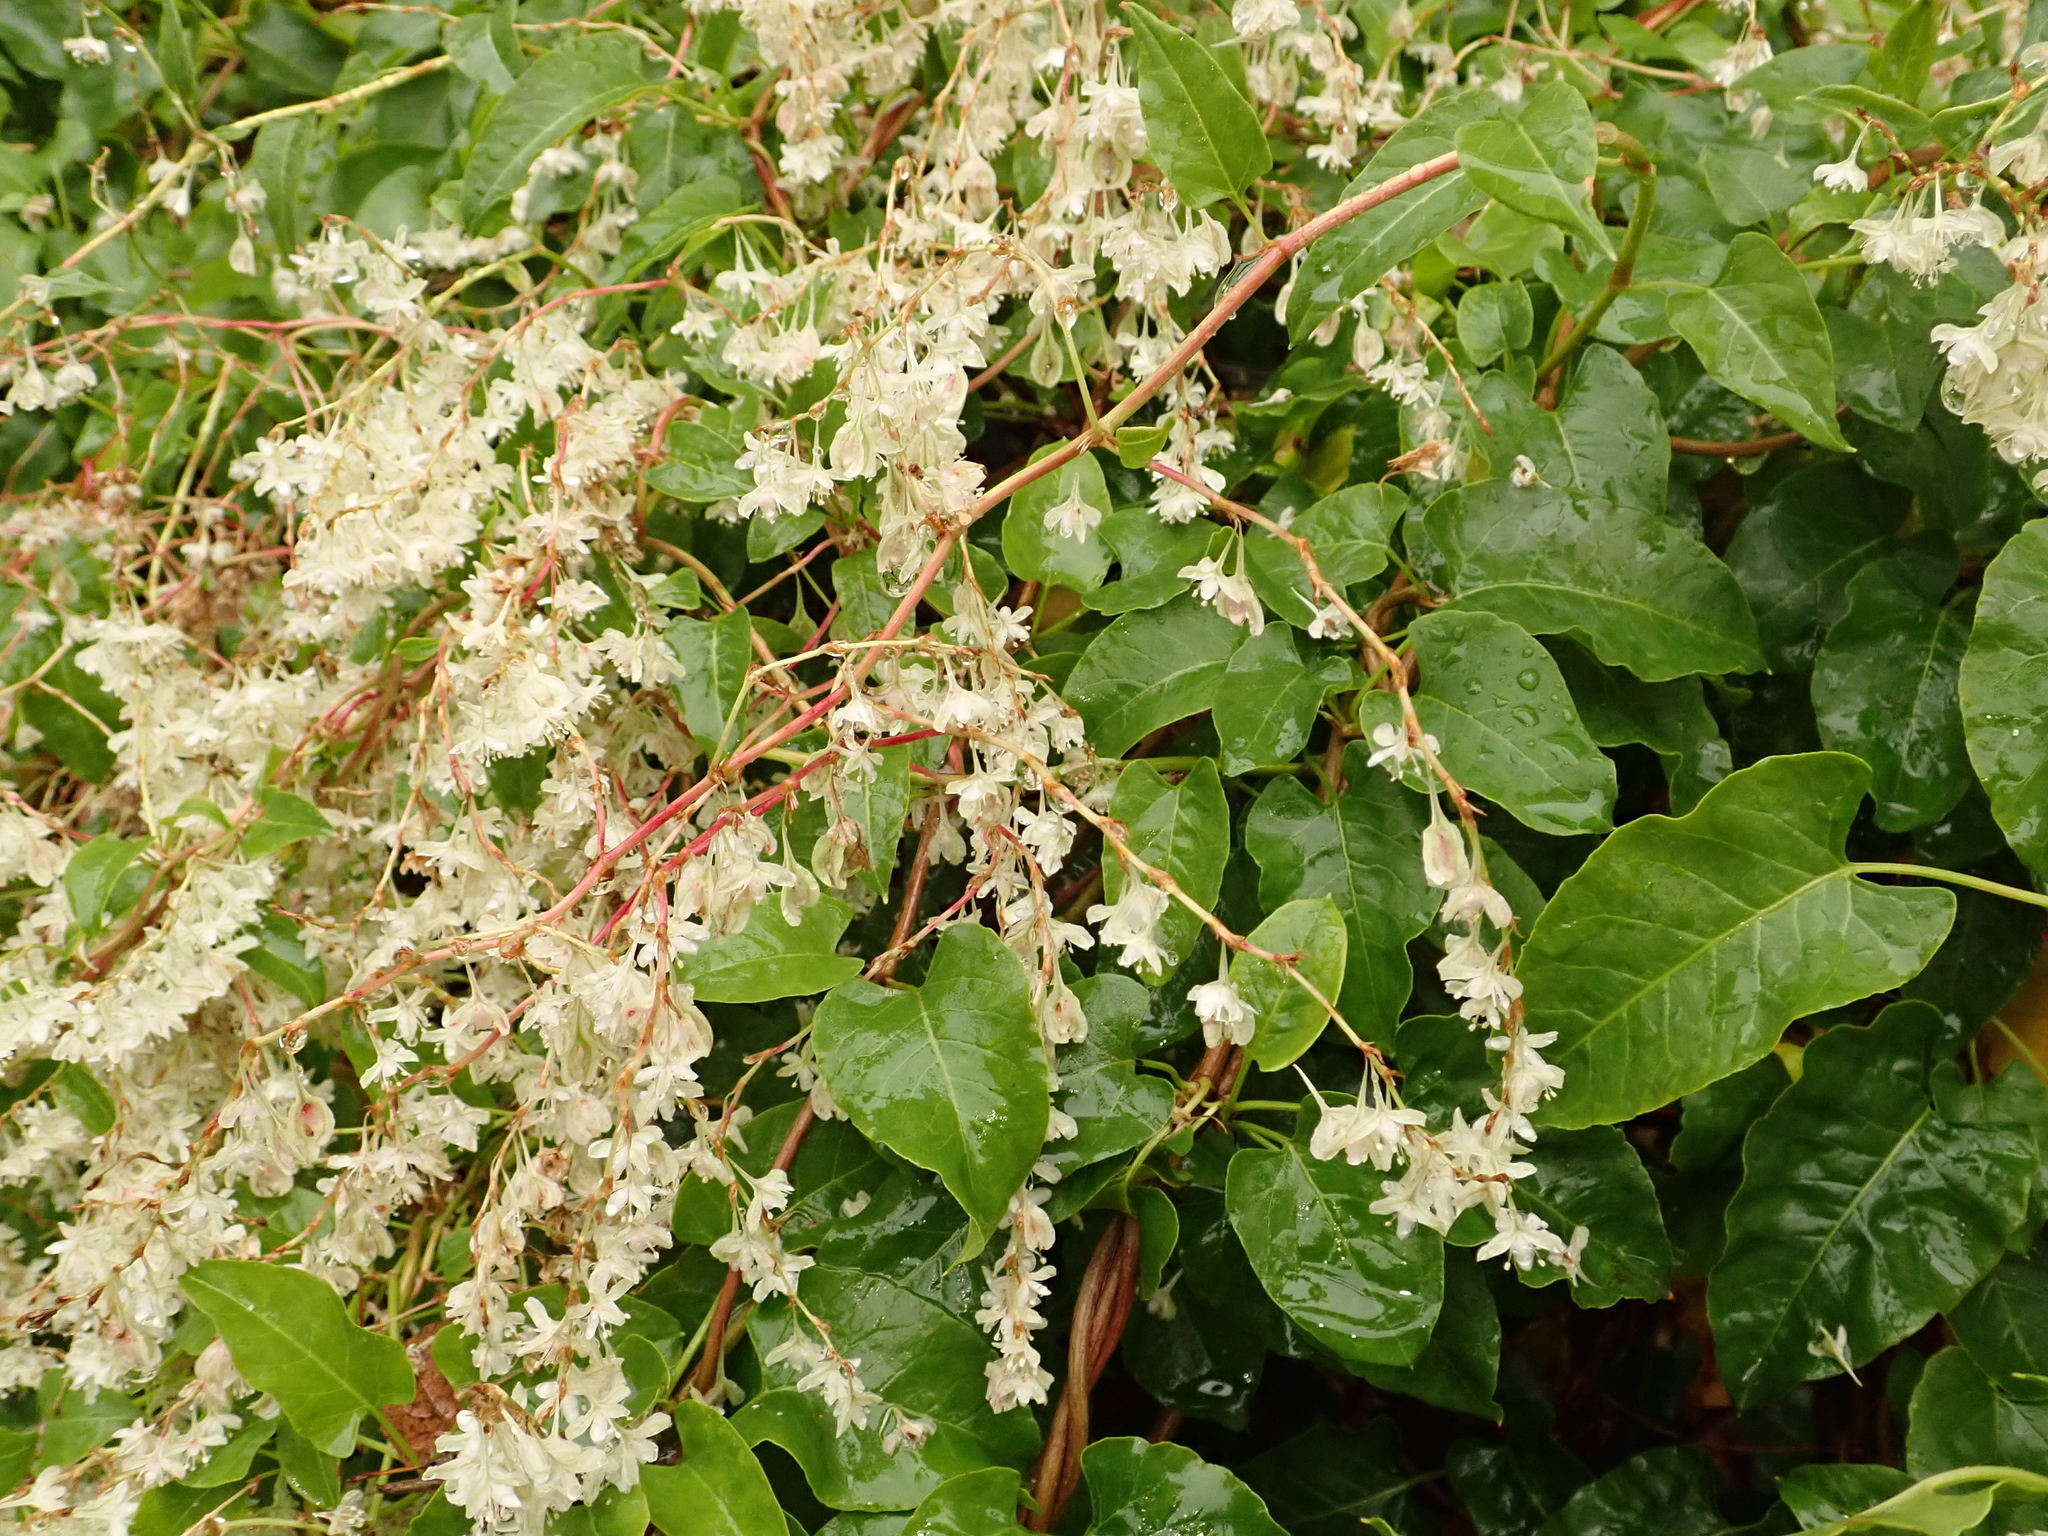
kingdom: Plantae
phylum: Tracheophyta
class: Magnoliopsida
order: Caryophyllales
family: Polygonaceae
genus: Fallopia
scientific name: Fallopia baldschuanica
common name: Russian-vine
